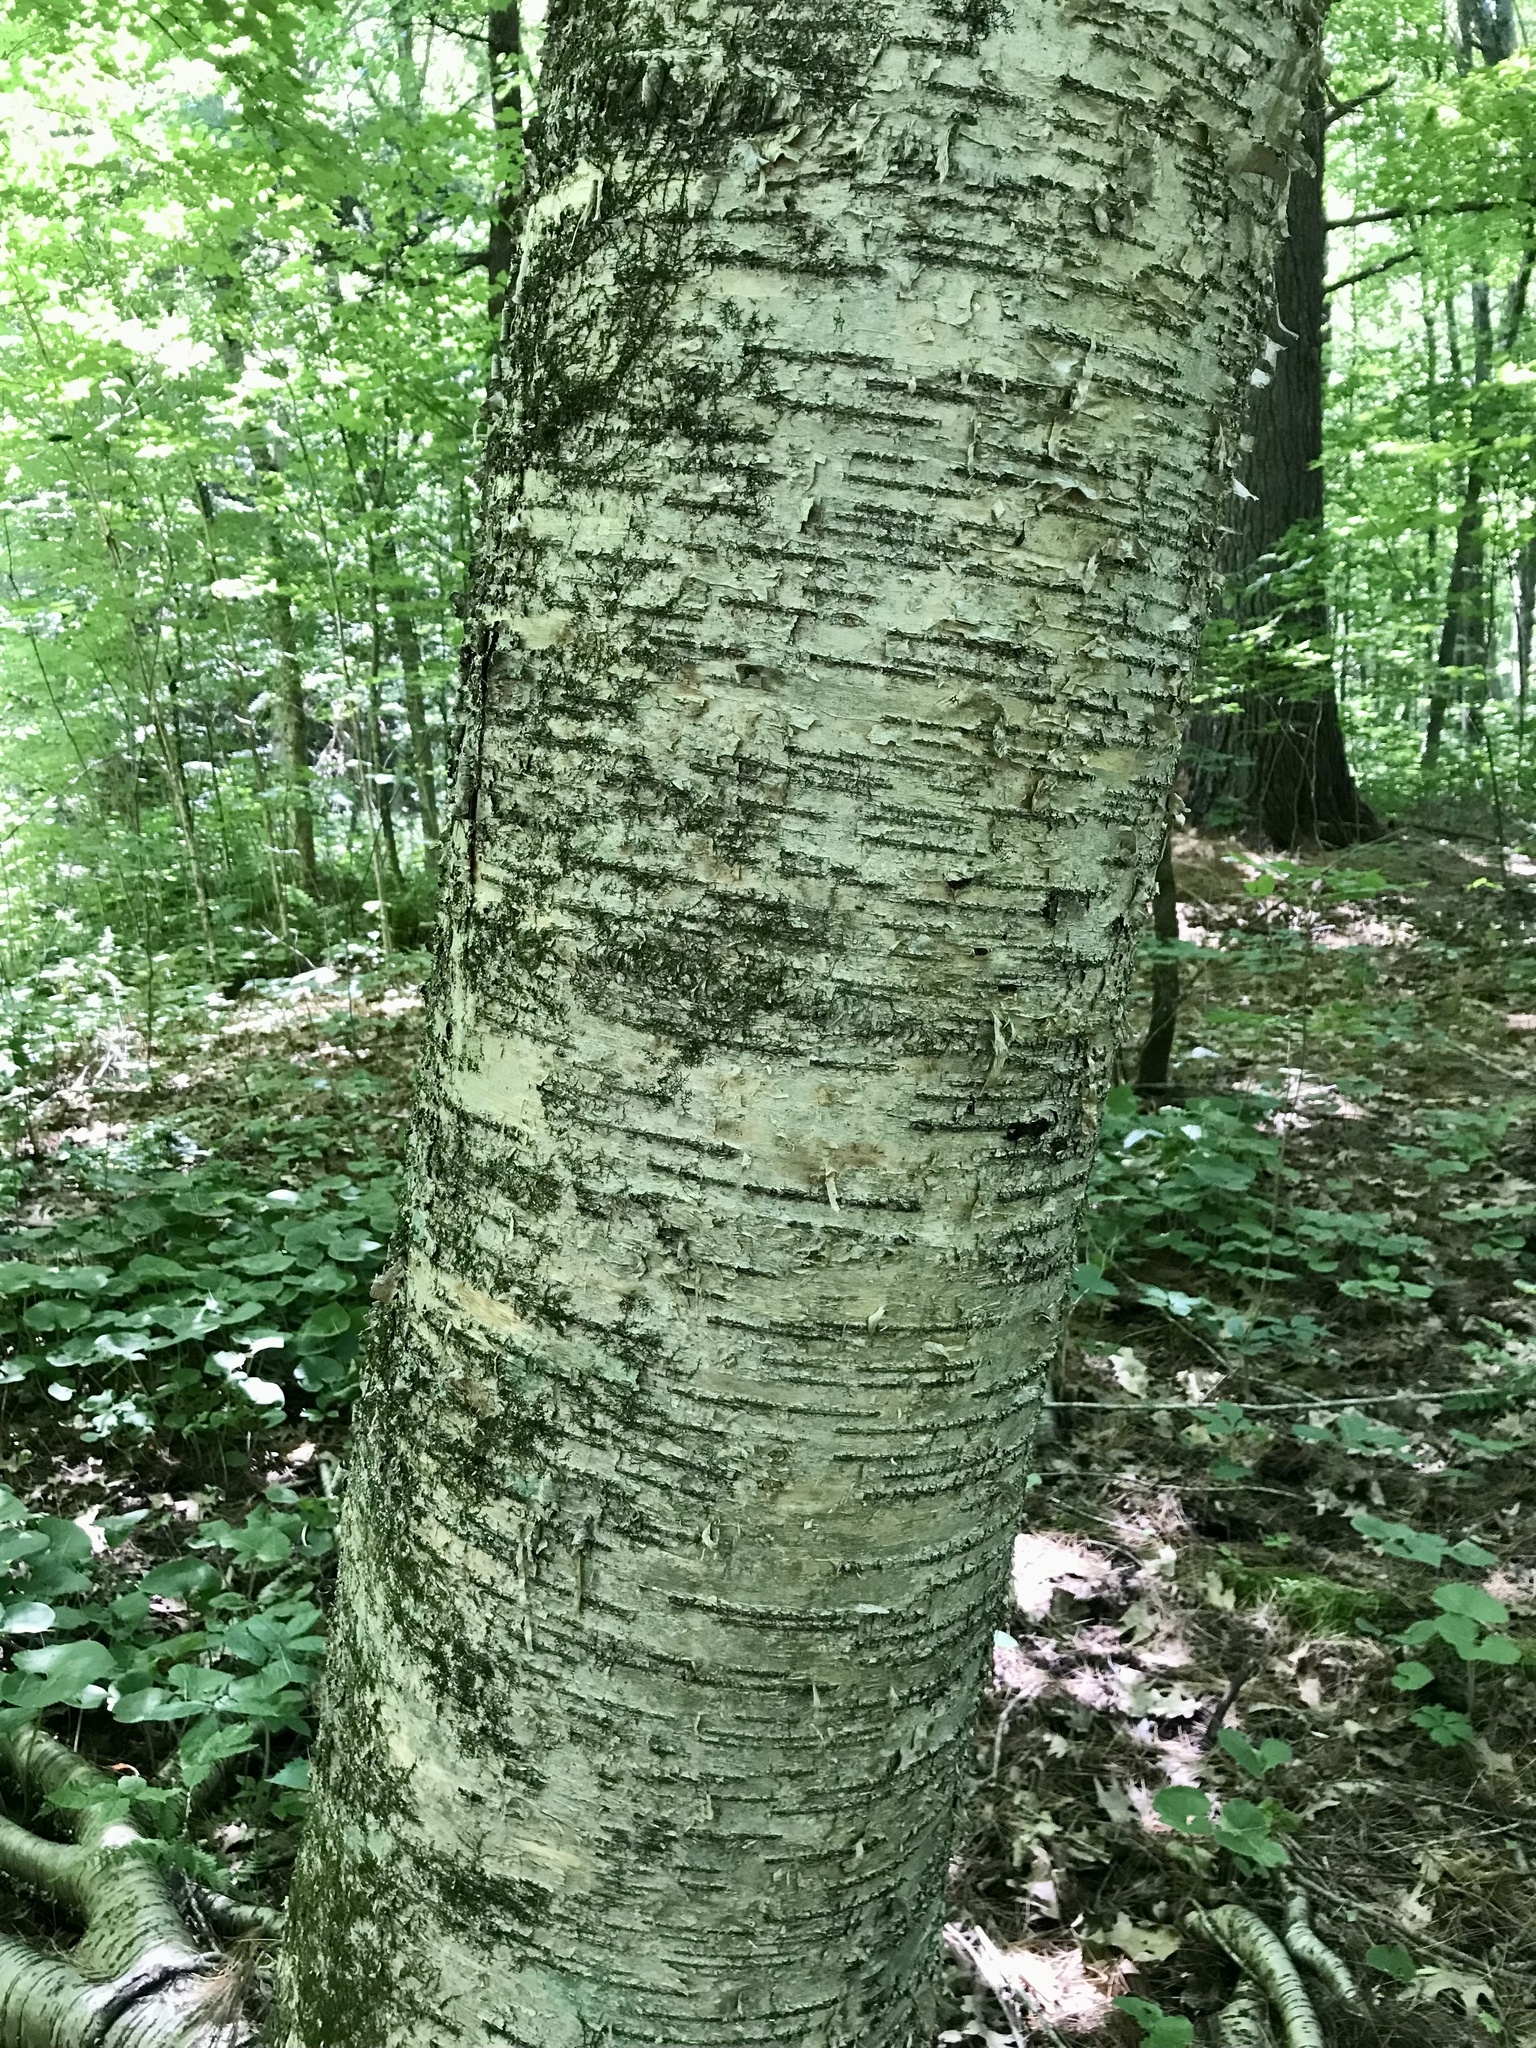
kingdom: Plantae
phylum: Tracheophyta
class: Magnoliopsida
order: Fagales
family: Betulaceae
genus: Betula
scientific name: Betula alleghaniensis
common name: Yellow birch
